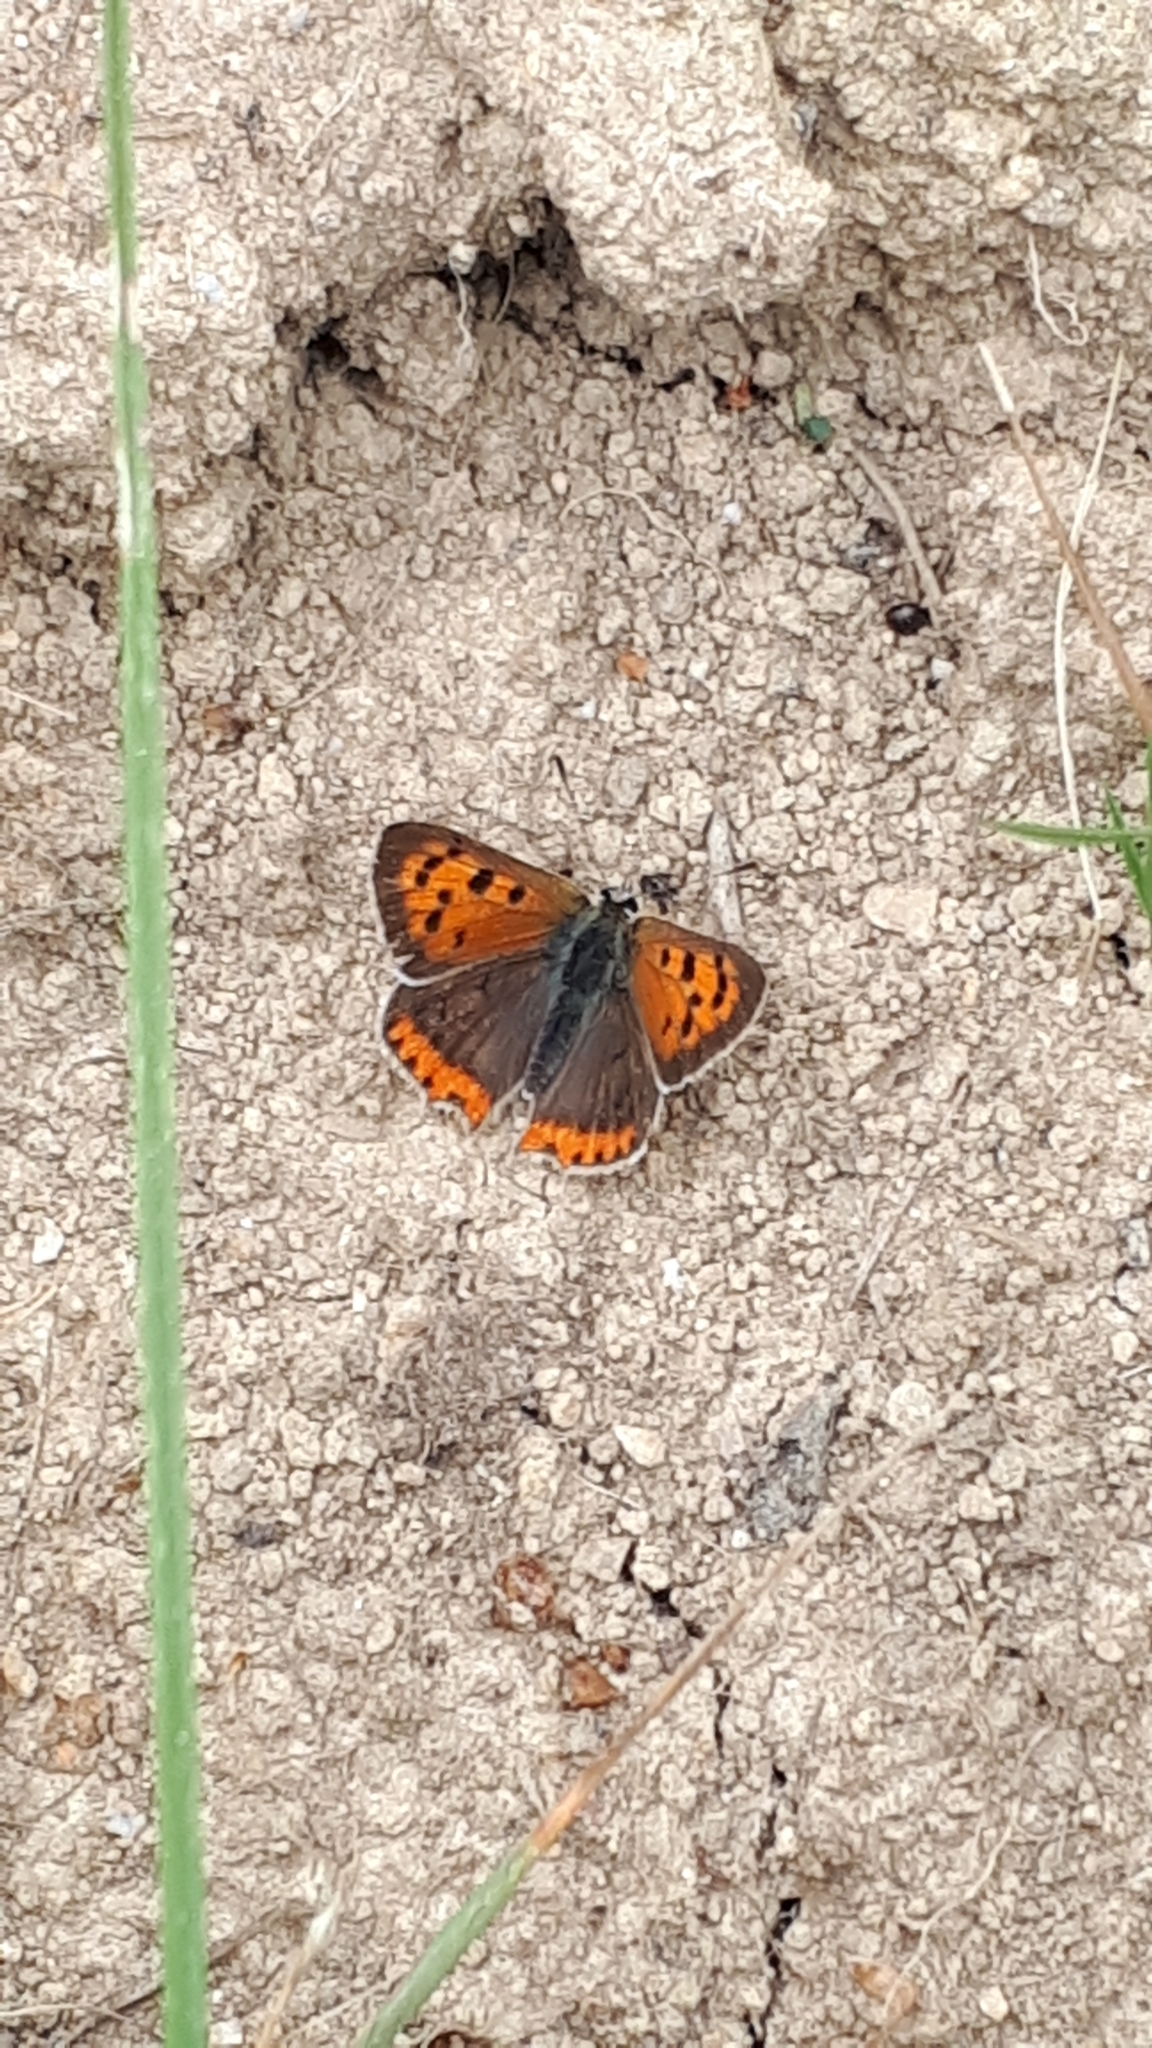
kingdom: Animalia
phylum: Arthropoda
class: Insecta
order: Lepidoptera
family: Lycaenidae
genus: Lycaena
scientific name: Lycaena phlaeas
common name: Small copper
